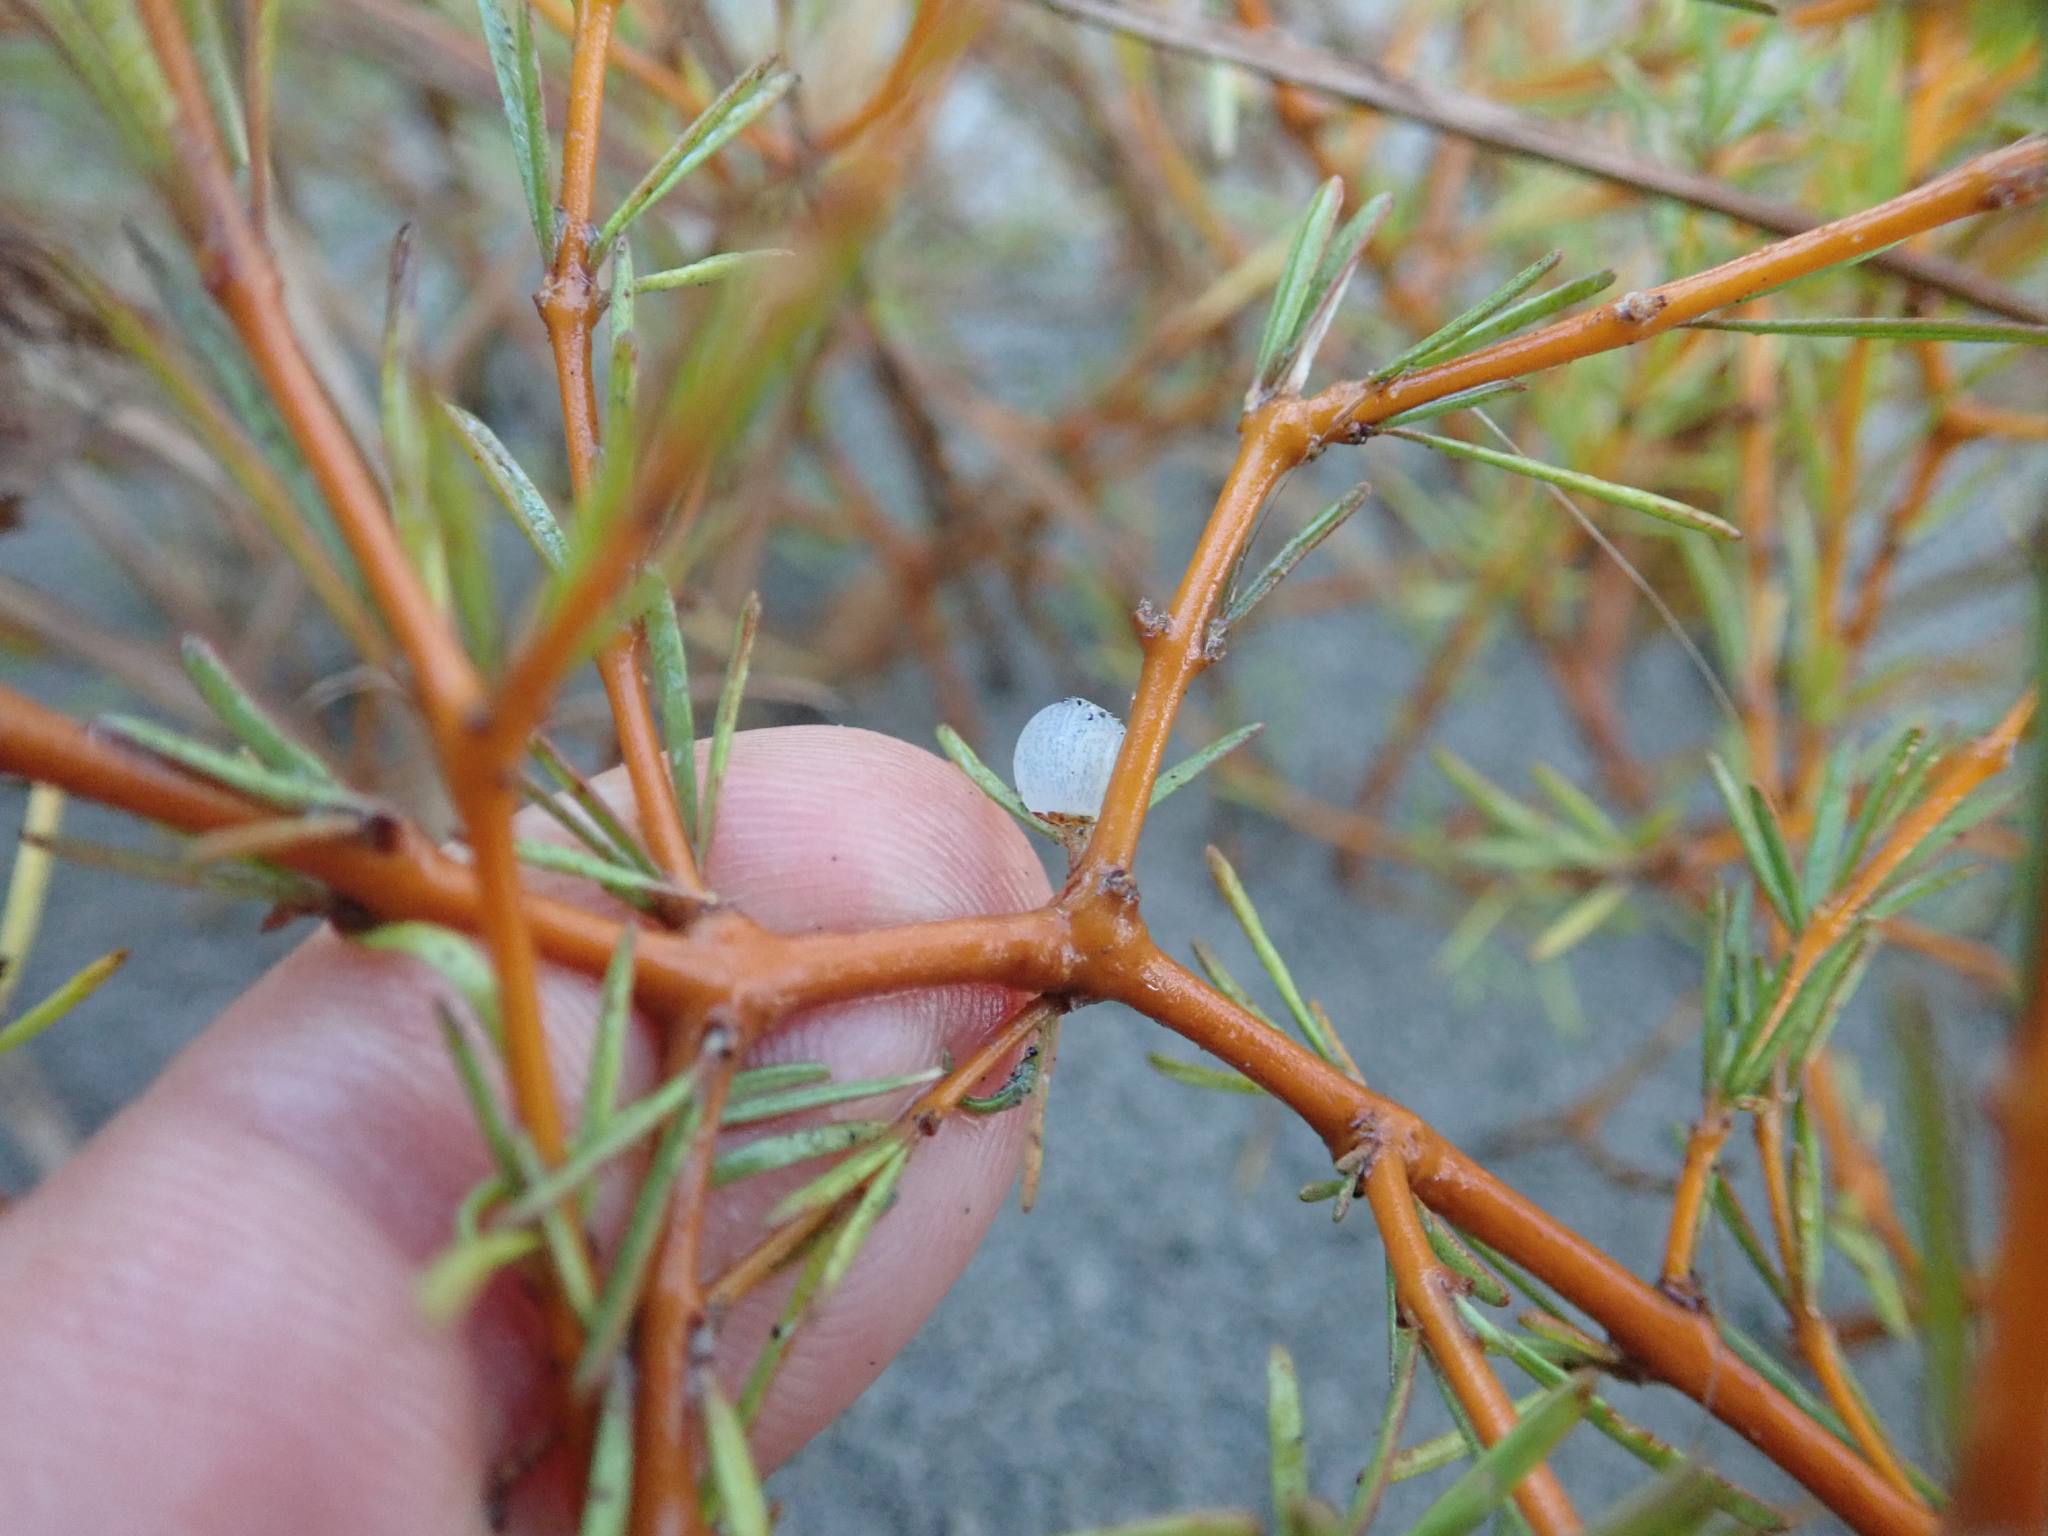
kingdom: Plantae
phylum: Tracheophyta
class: Magnoliopsida
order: Gentianales
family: Rubiaceae
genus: Coprosma
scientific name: Coprosma acerosa
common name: Sand coprosma
